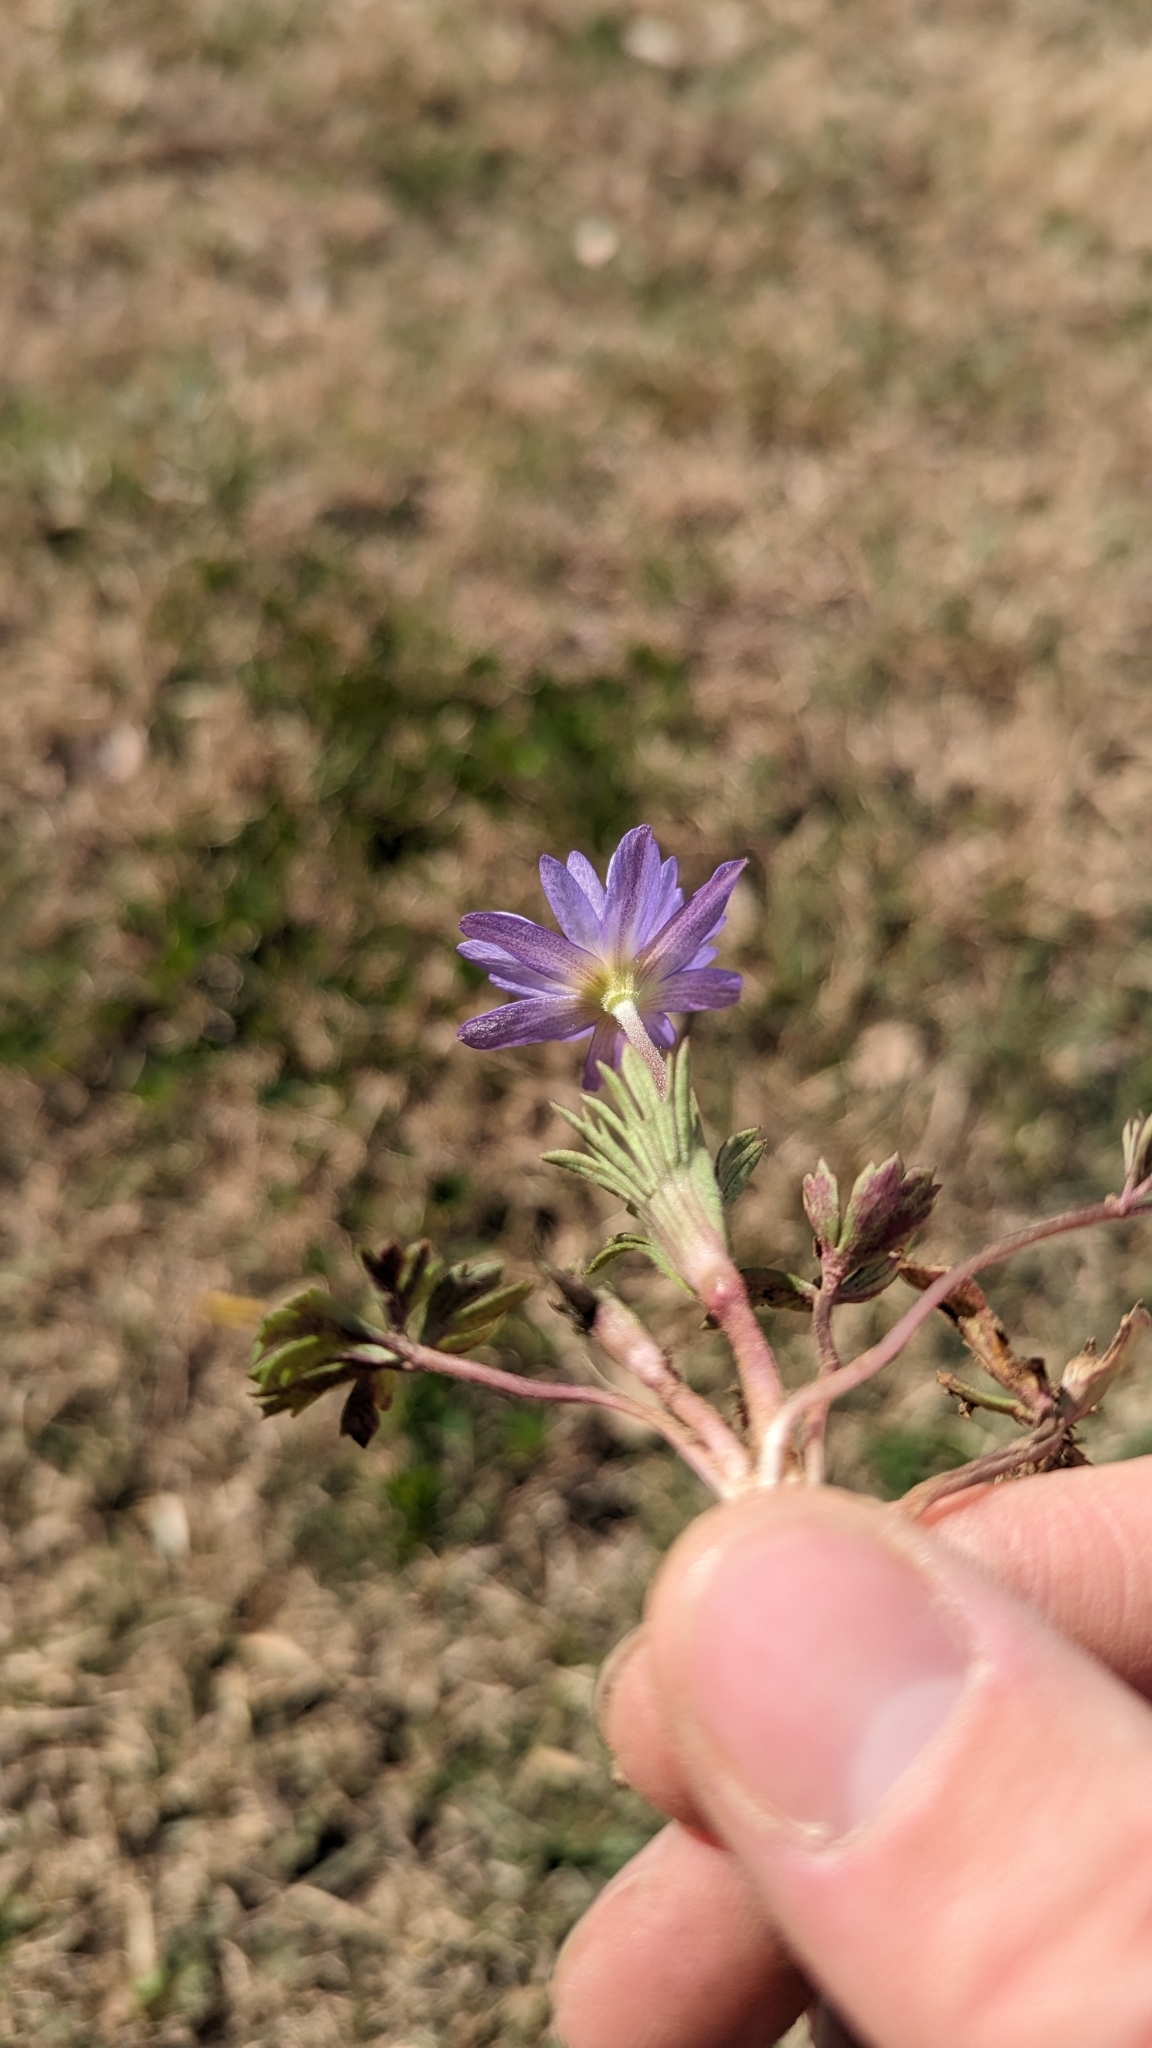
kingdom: Plantae
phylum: Tracheophyta
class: Magnoliopsida
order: Ranunculales
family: Ranunculaceae
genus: Anemone
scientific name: Anemone caroliniana
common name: Carolina anemone
